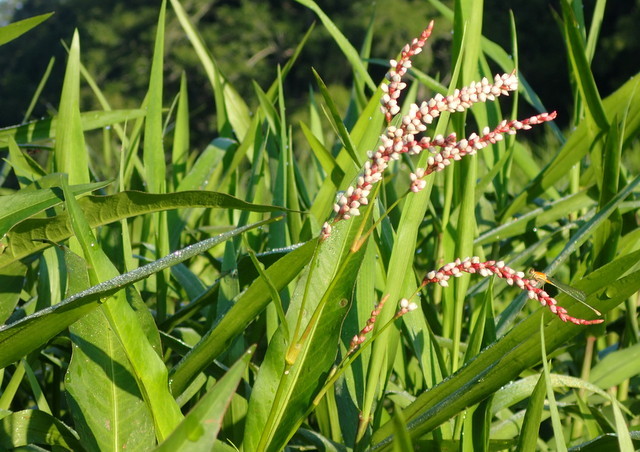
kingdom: Plantae
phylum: Tracheophyta
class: Magnoliopsida
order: Caryophyllales
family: Polygonaceae
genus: Persicaria
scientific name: Persicaria hydropiperoides
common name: Swamp smartweed
